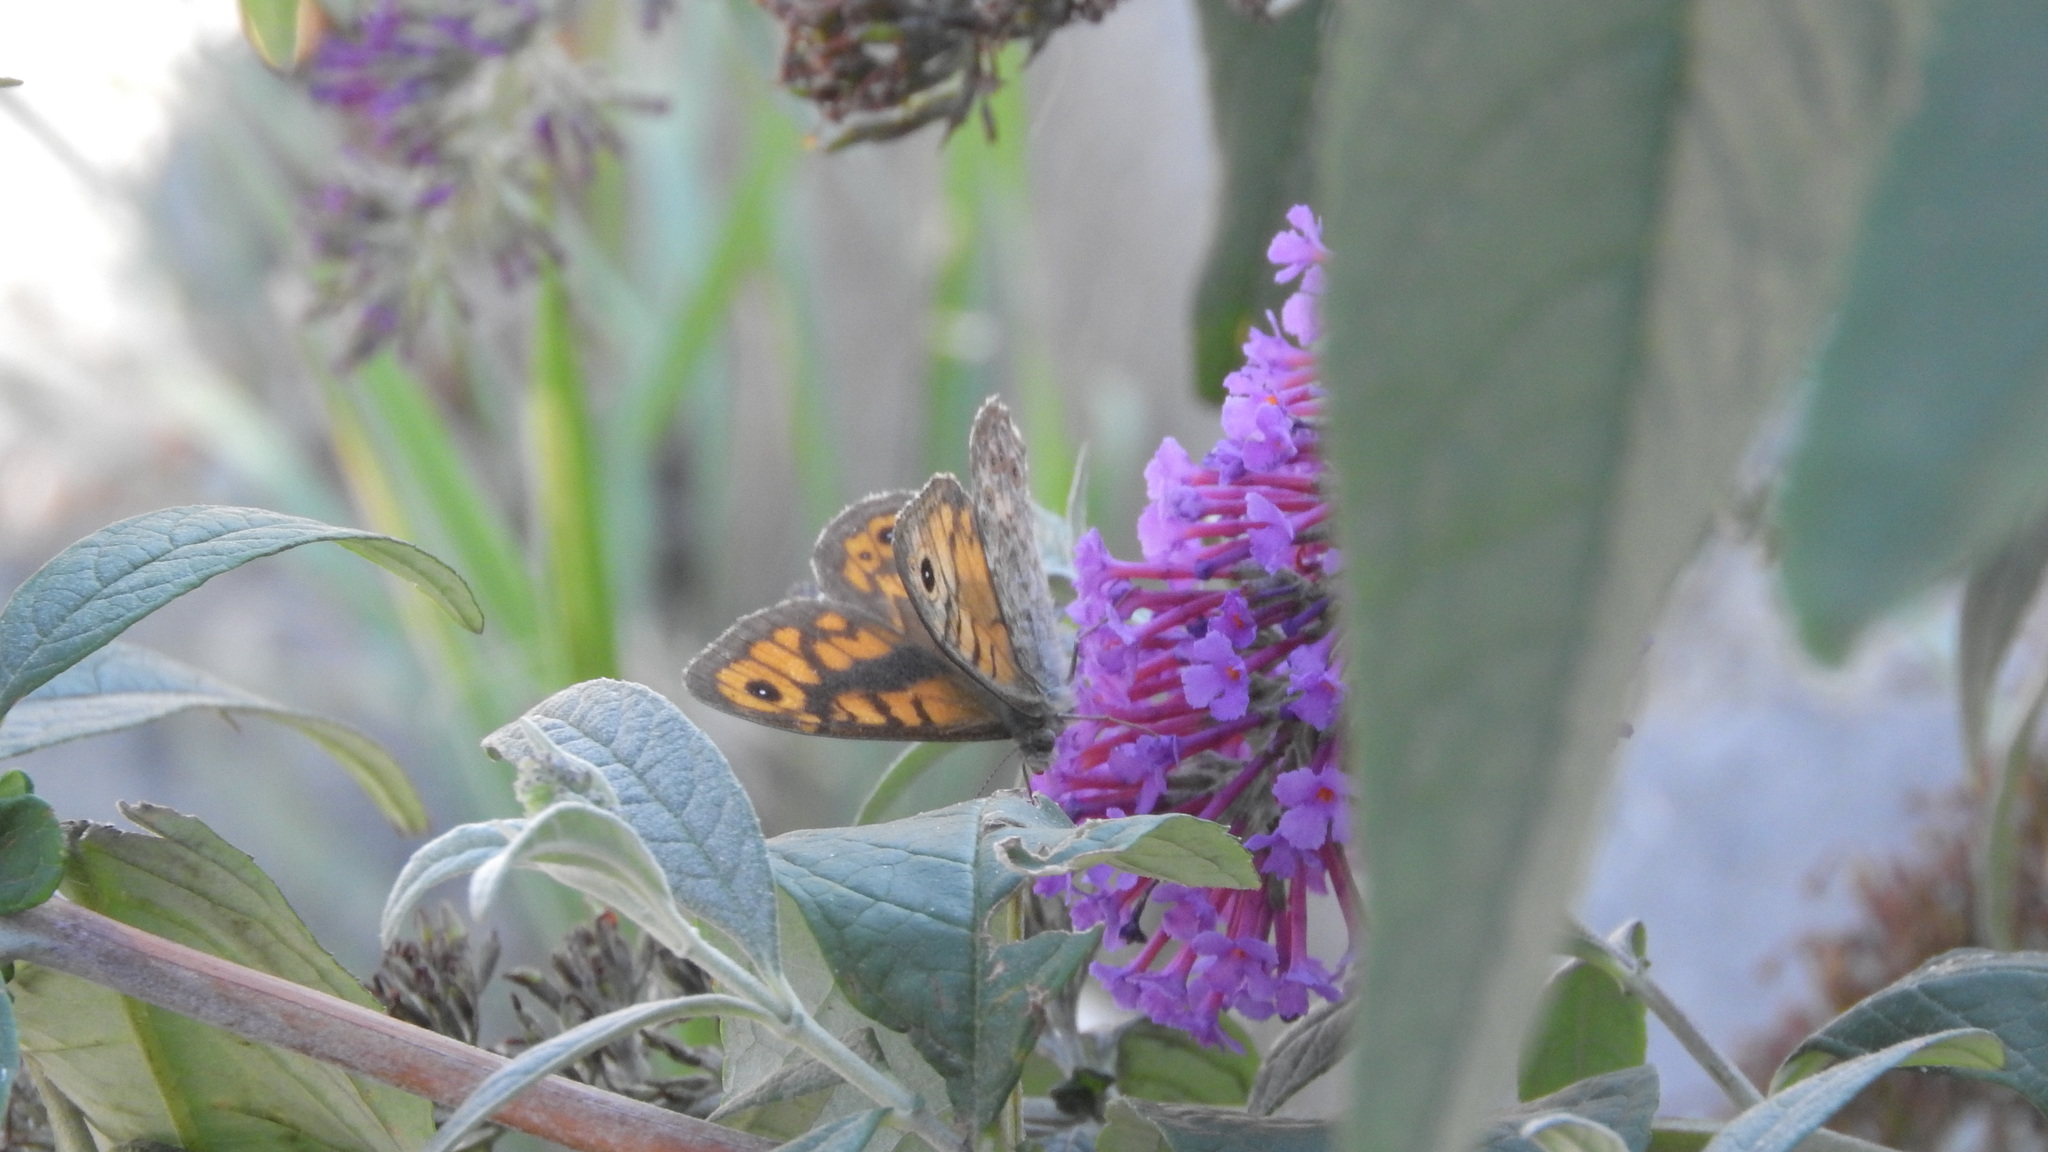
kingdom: Animalia
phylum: Arthropoda
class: Insecta
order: Lepidoptera
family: Nymphalidae
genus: Pararge
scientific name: Pararge Lasiommata megera
